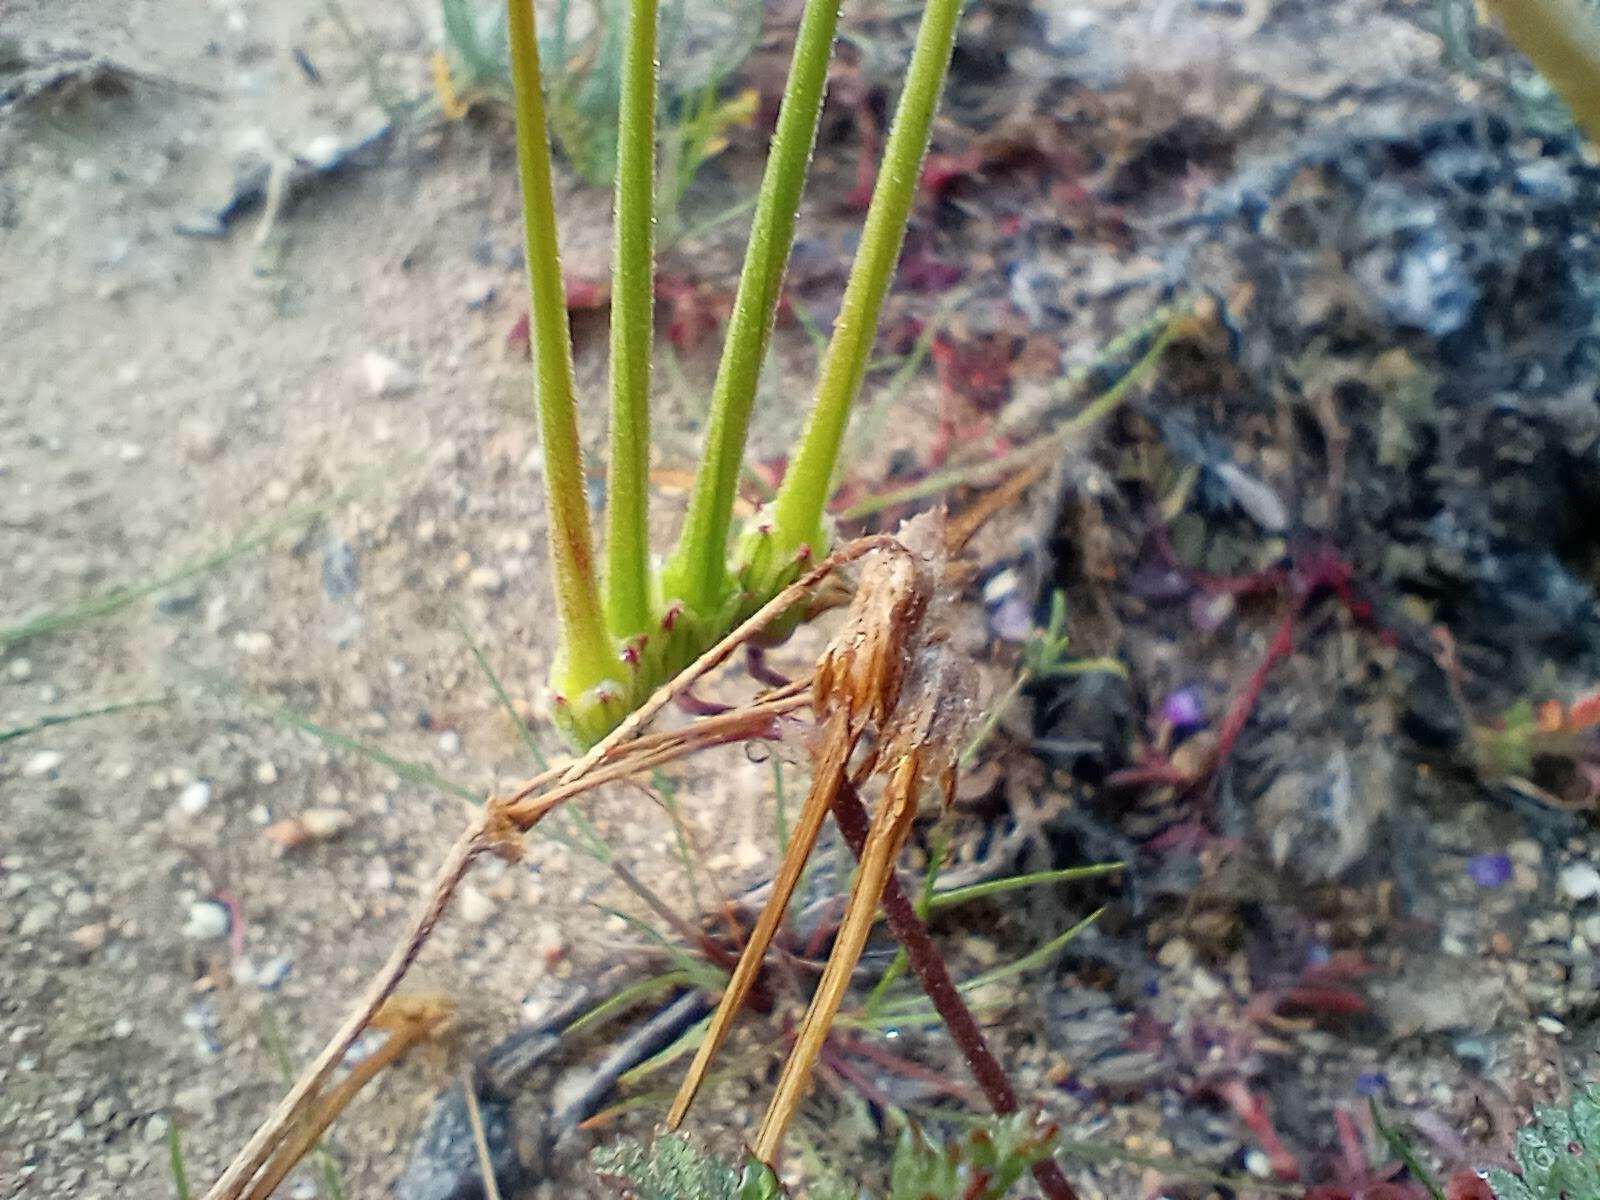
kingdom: Plantae
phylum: Tracheophyta
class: Magnoliopsida
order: Geraniales
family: Geraniaceae
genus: Erodium
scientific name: Erodium cicutarium
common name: Common stork's-bill
